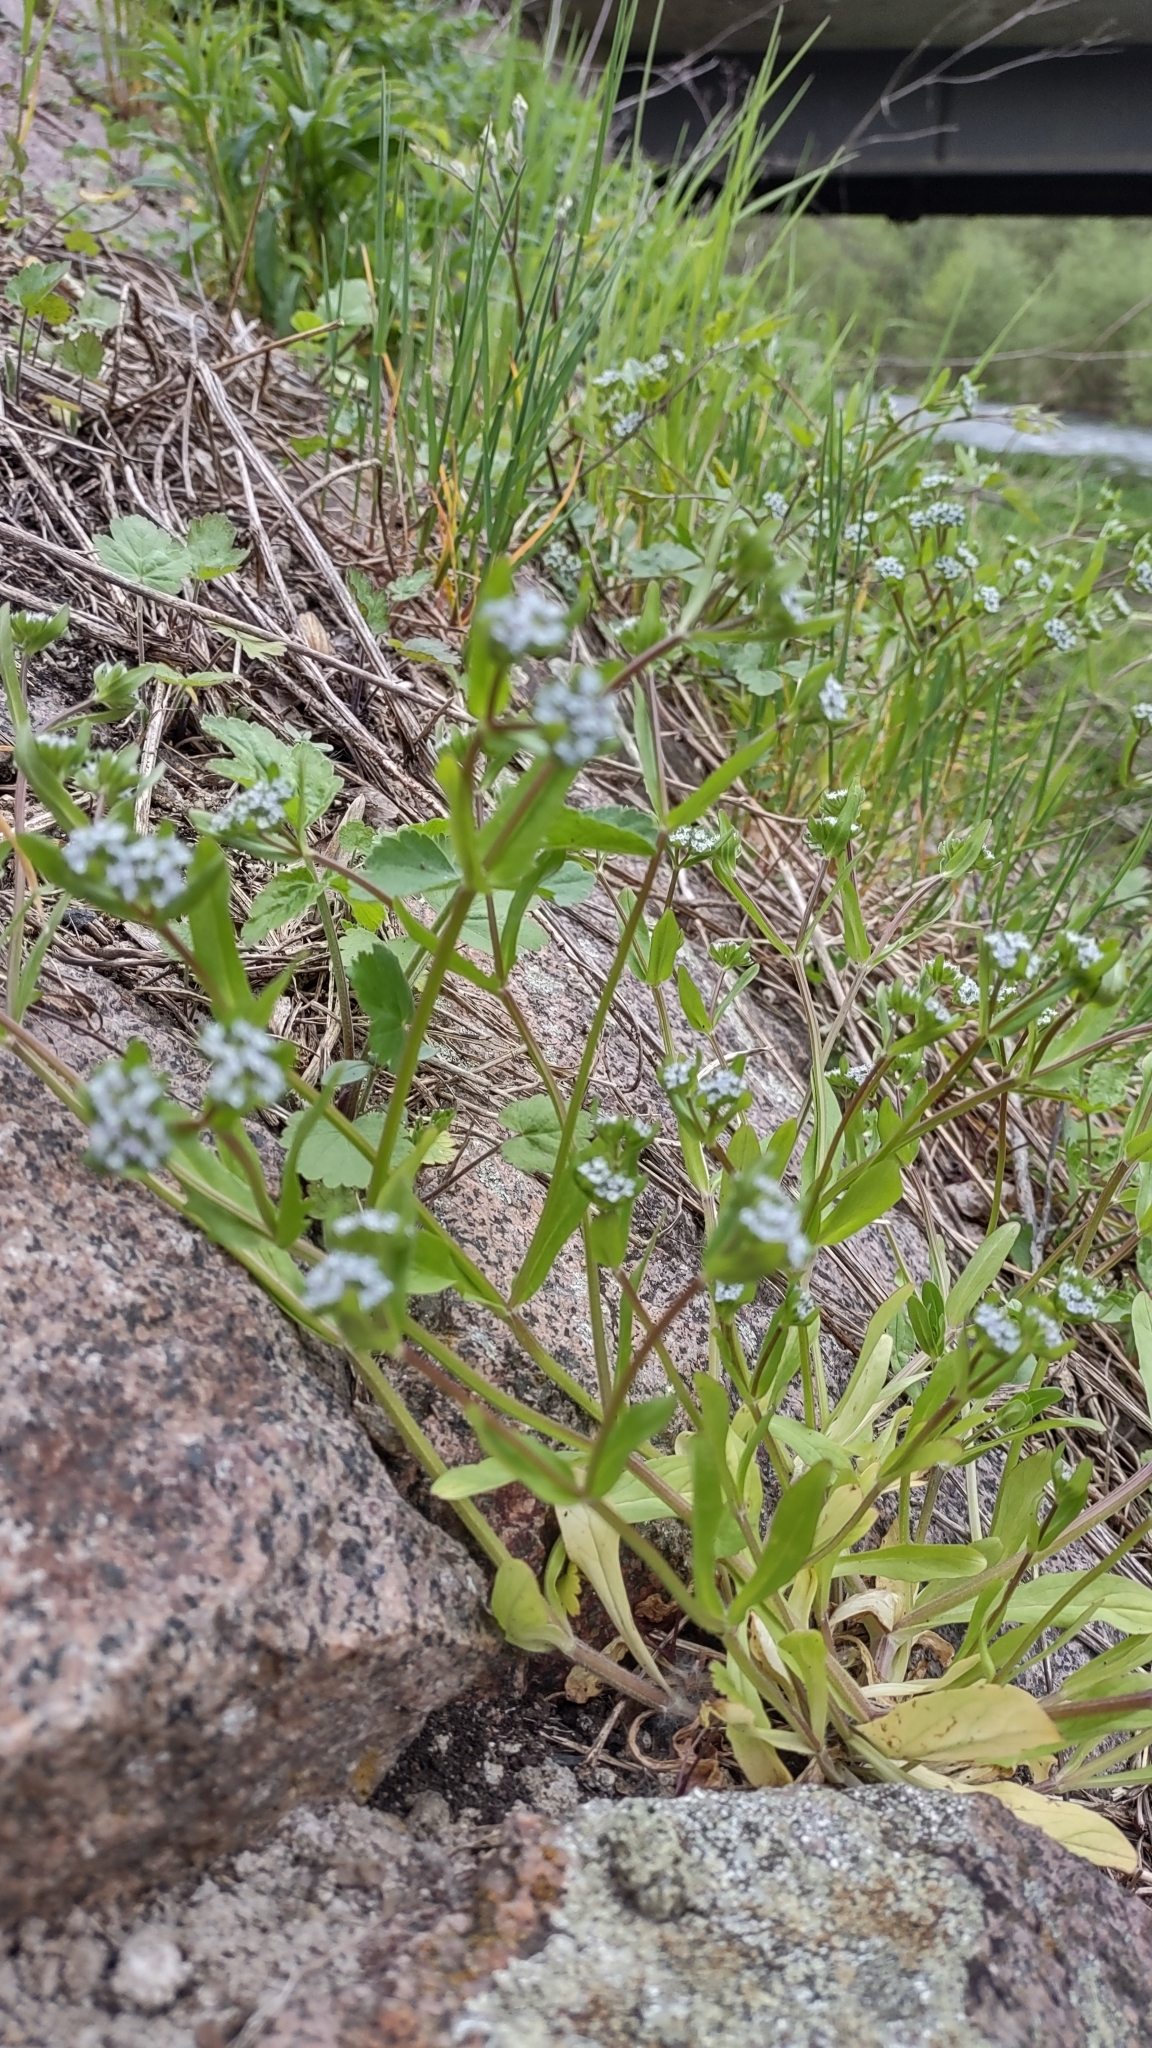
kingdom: Plantae
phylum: Tracheophyta
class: Magnoliopsida
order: Dipsacales
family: Caprifoliaceae
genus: Valerianella
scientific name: Valerianella locusta
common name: Common cornsalad
